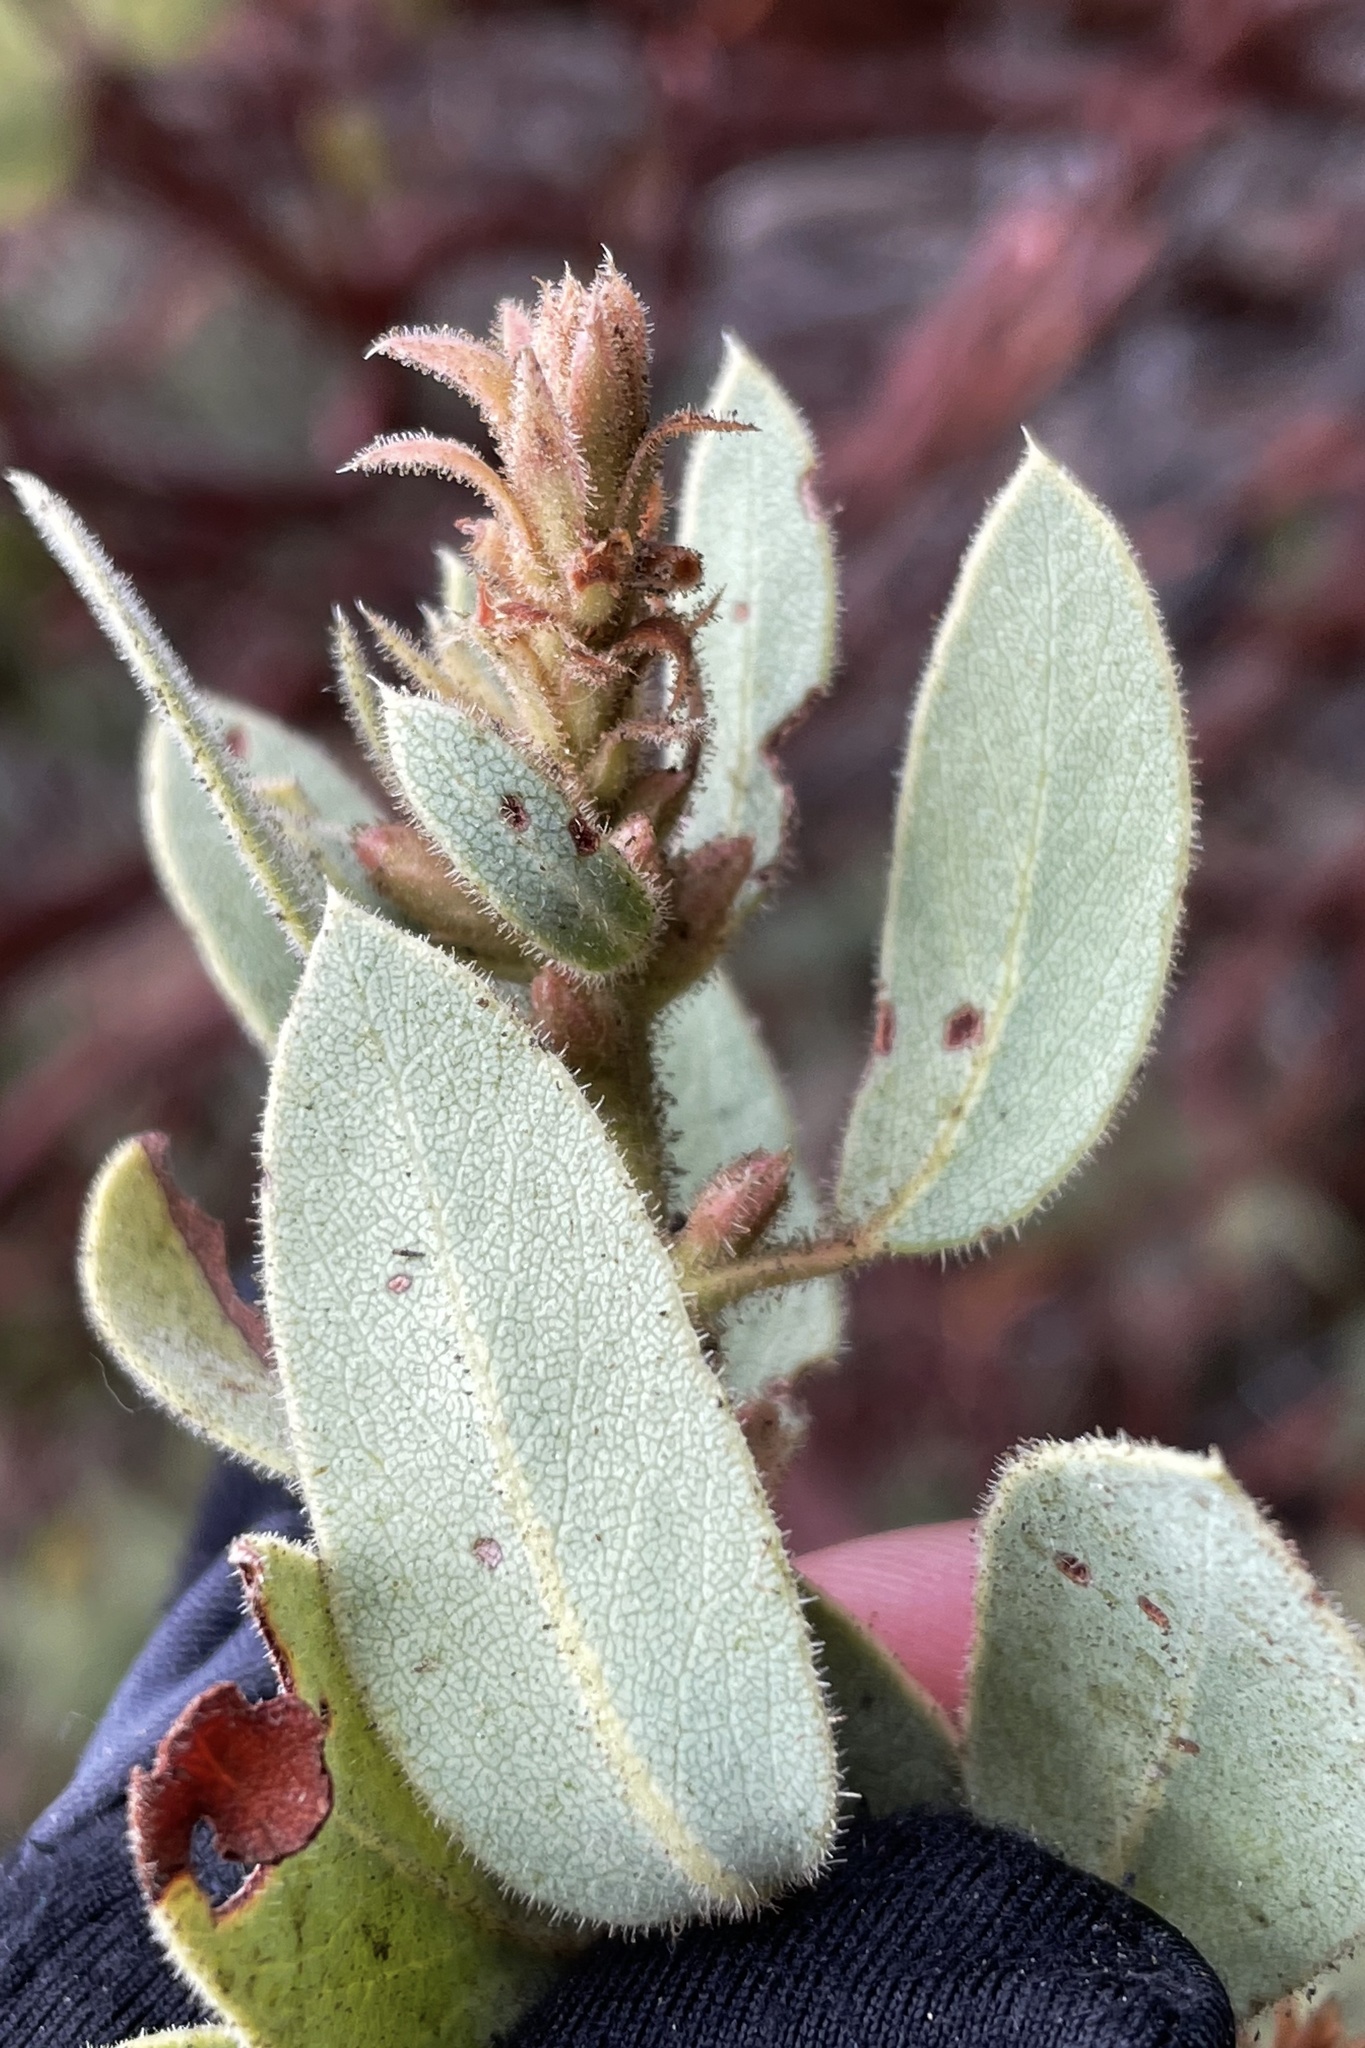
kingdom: Plantae
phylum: Tracheophyta
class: Magnoliopsida
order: Ericales
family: Ericaceae
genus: Arctostaphylos
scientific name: Arctostaphylos pringlei
